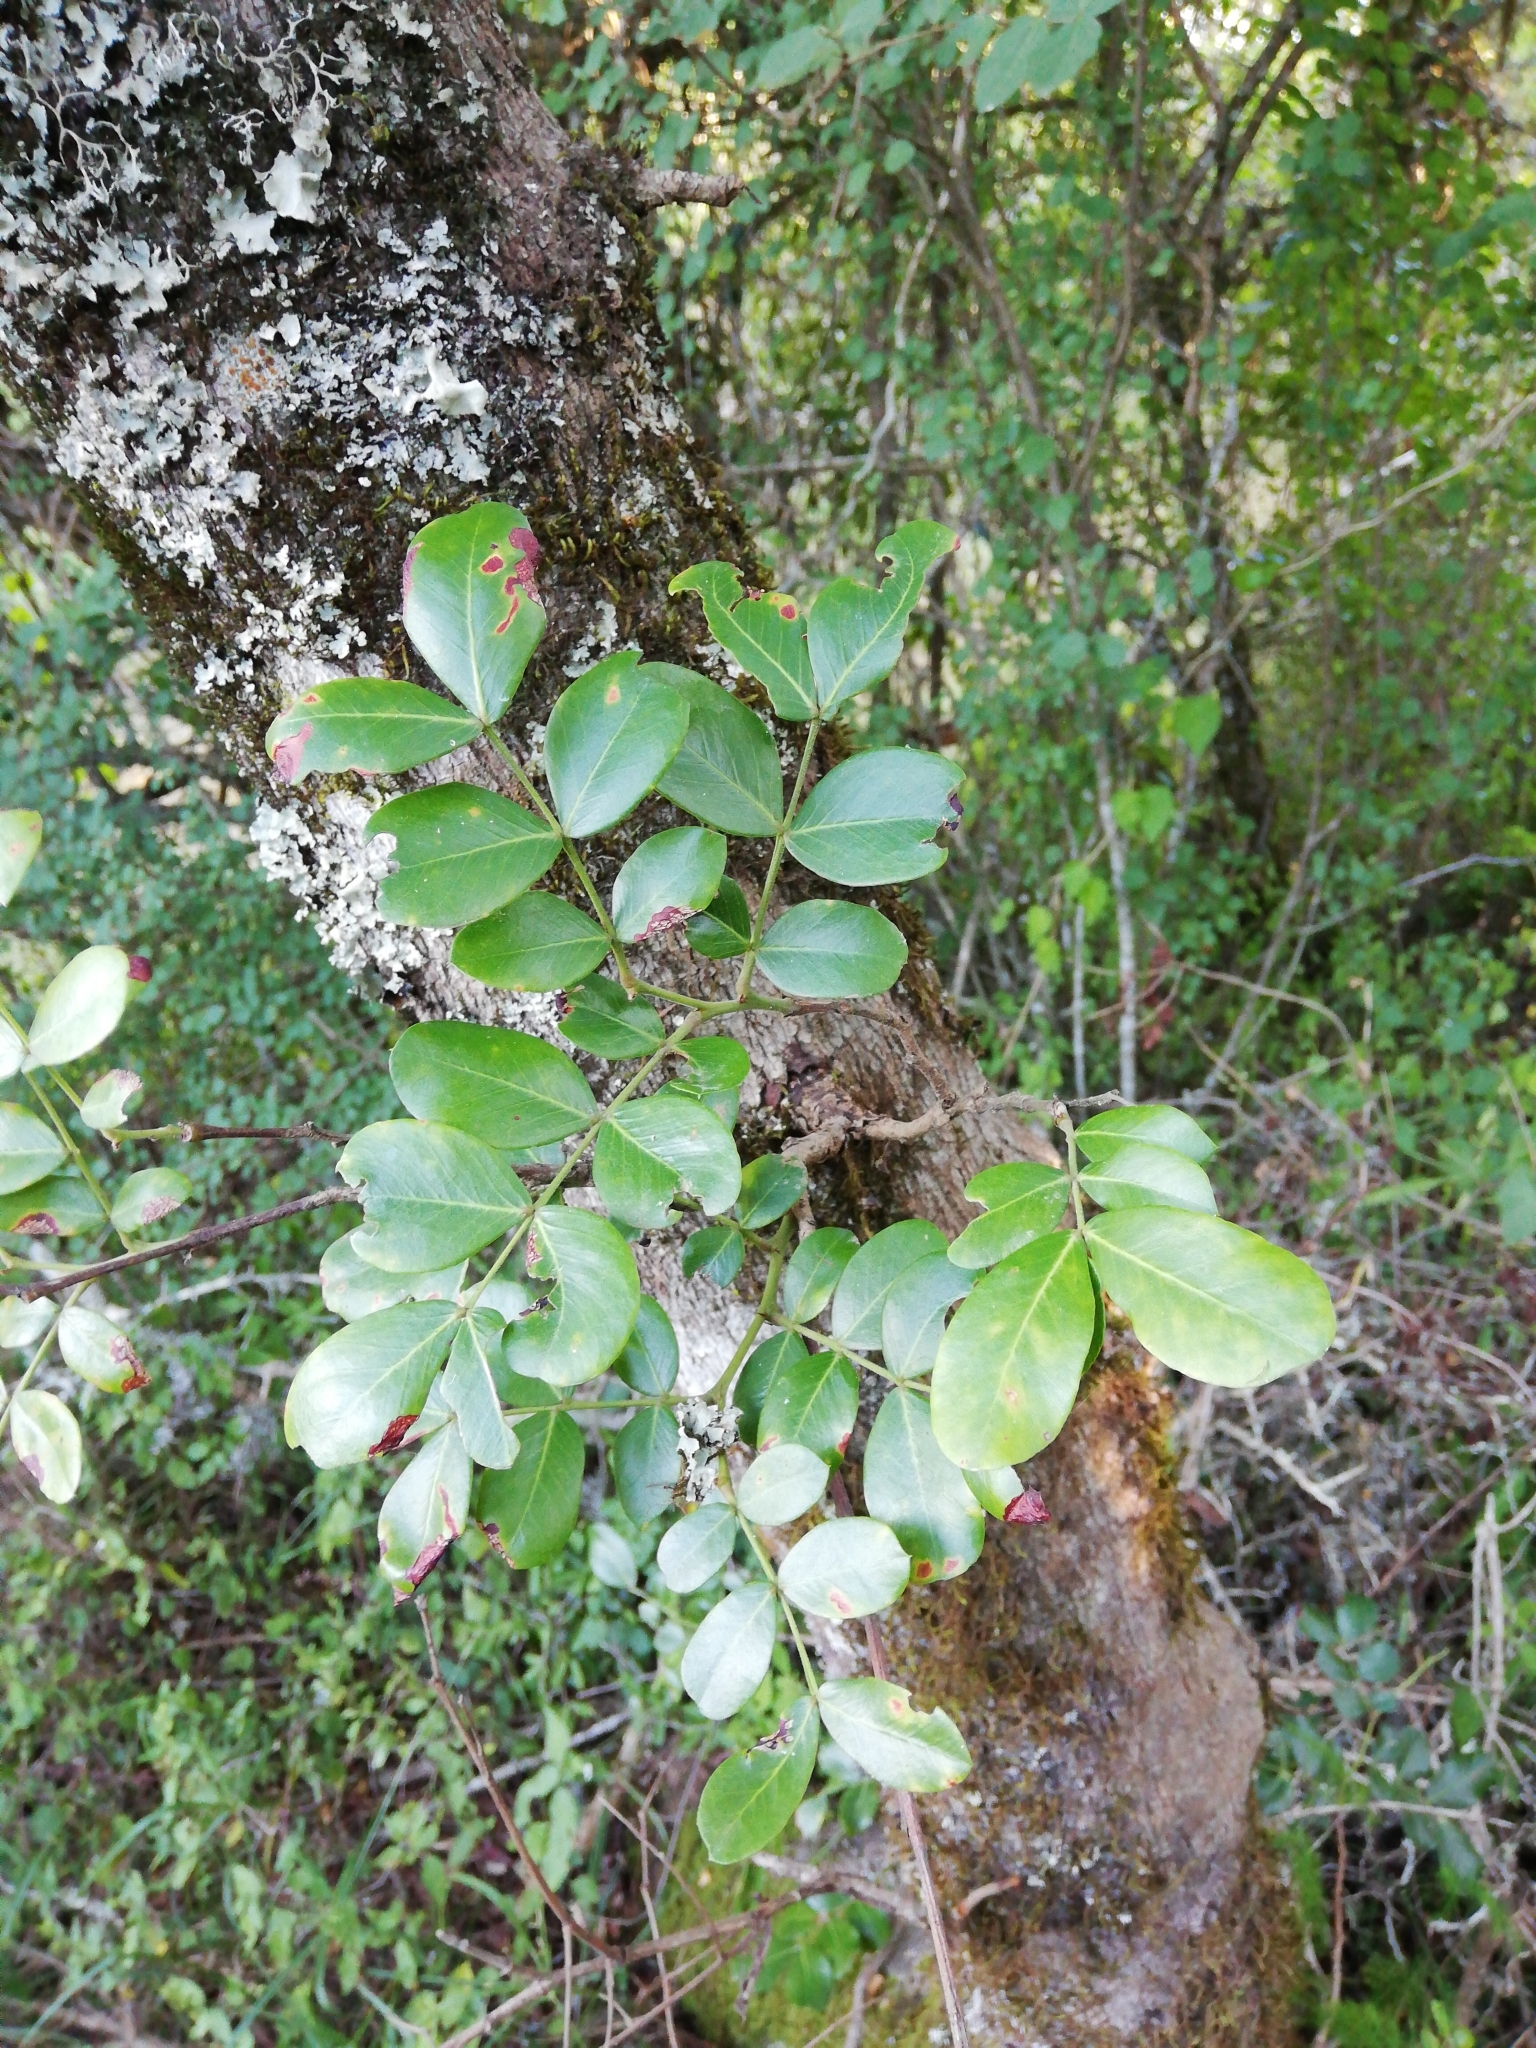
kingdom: Plantae
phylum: Tracheophyta
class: Magnoliopsida
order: Fabales
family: Fabaceae
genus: Schotia
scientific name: Schotia latifolia
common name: Bush boer-bean
